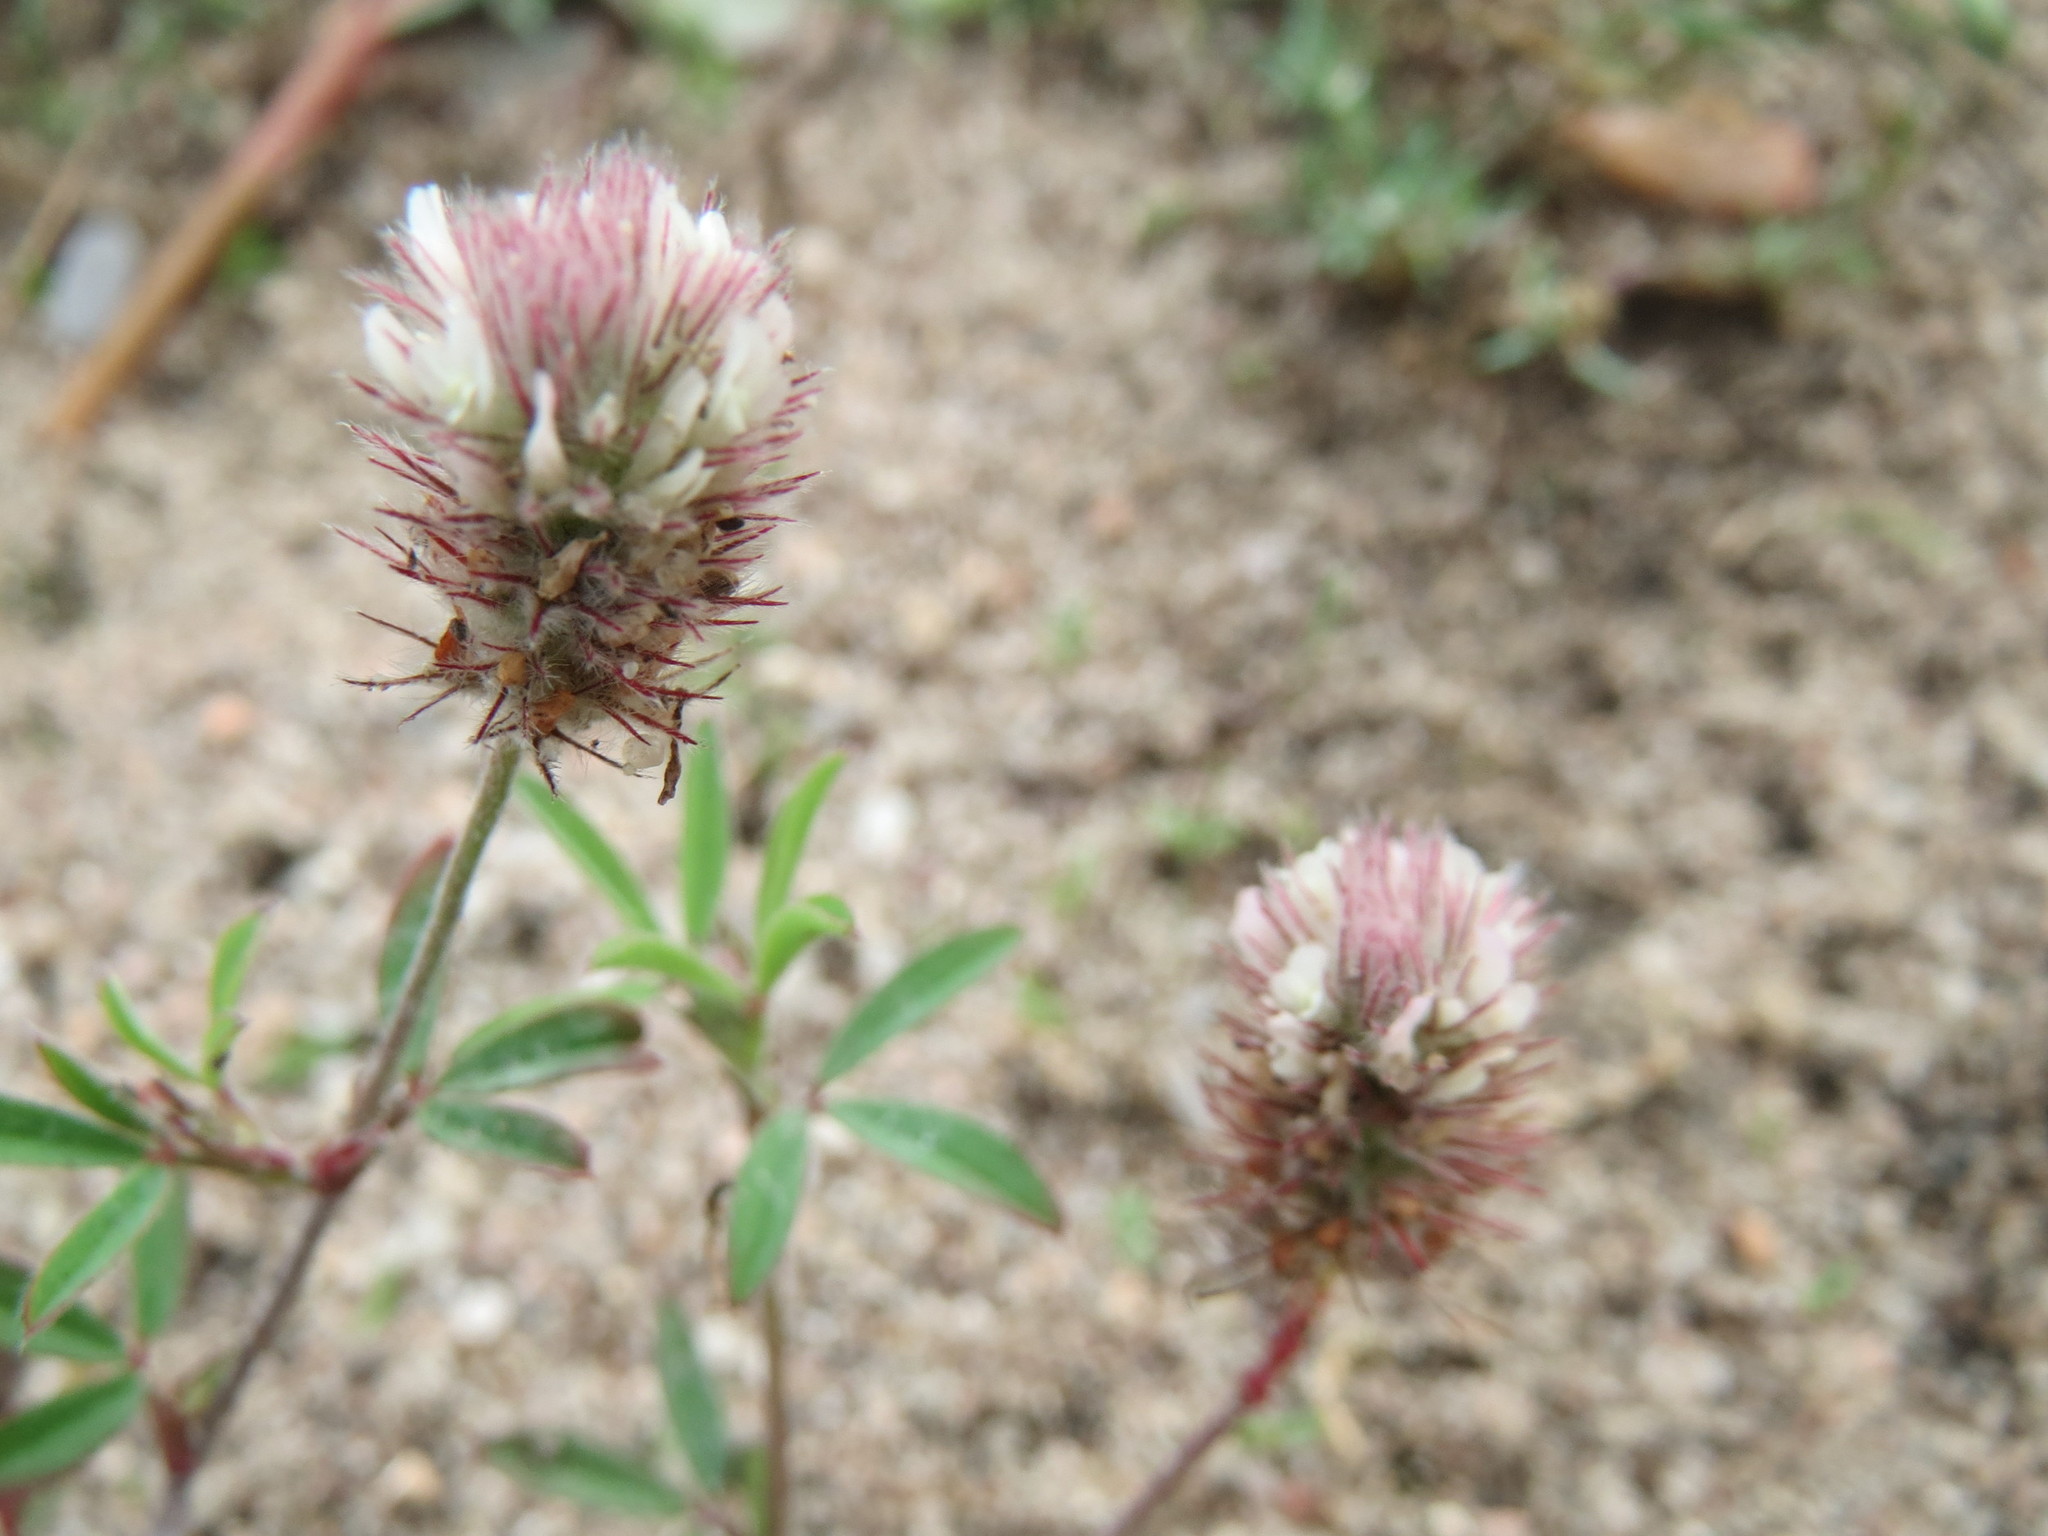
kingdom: Plantae
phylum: Tracheophyta
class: Magnoliopsida
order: Fabales
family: Fabaceae
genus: Trifolium
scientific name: Trifolium arvense
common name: Hare's-foot clover
